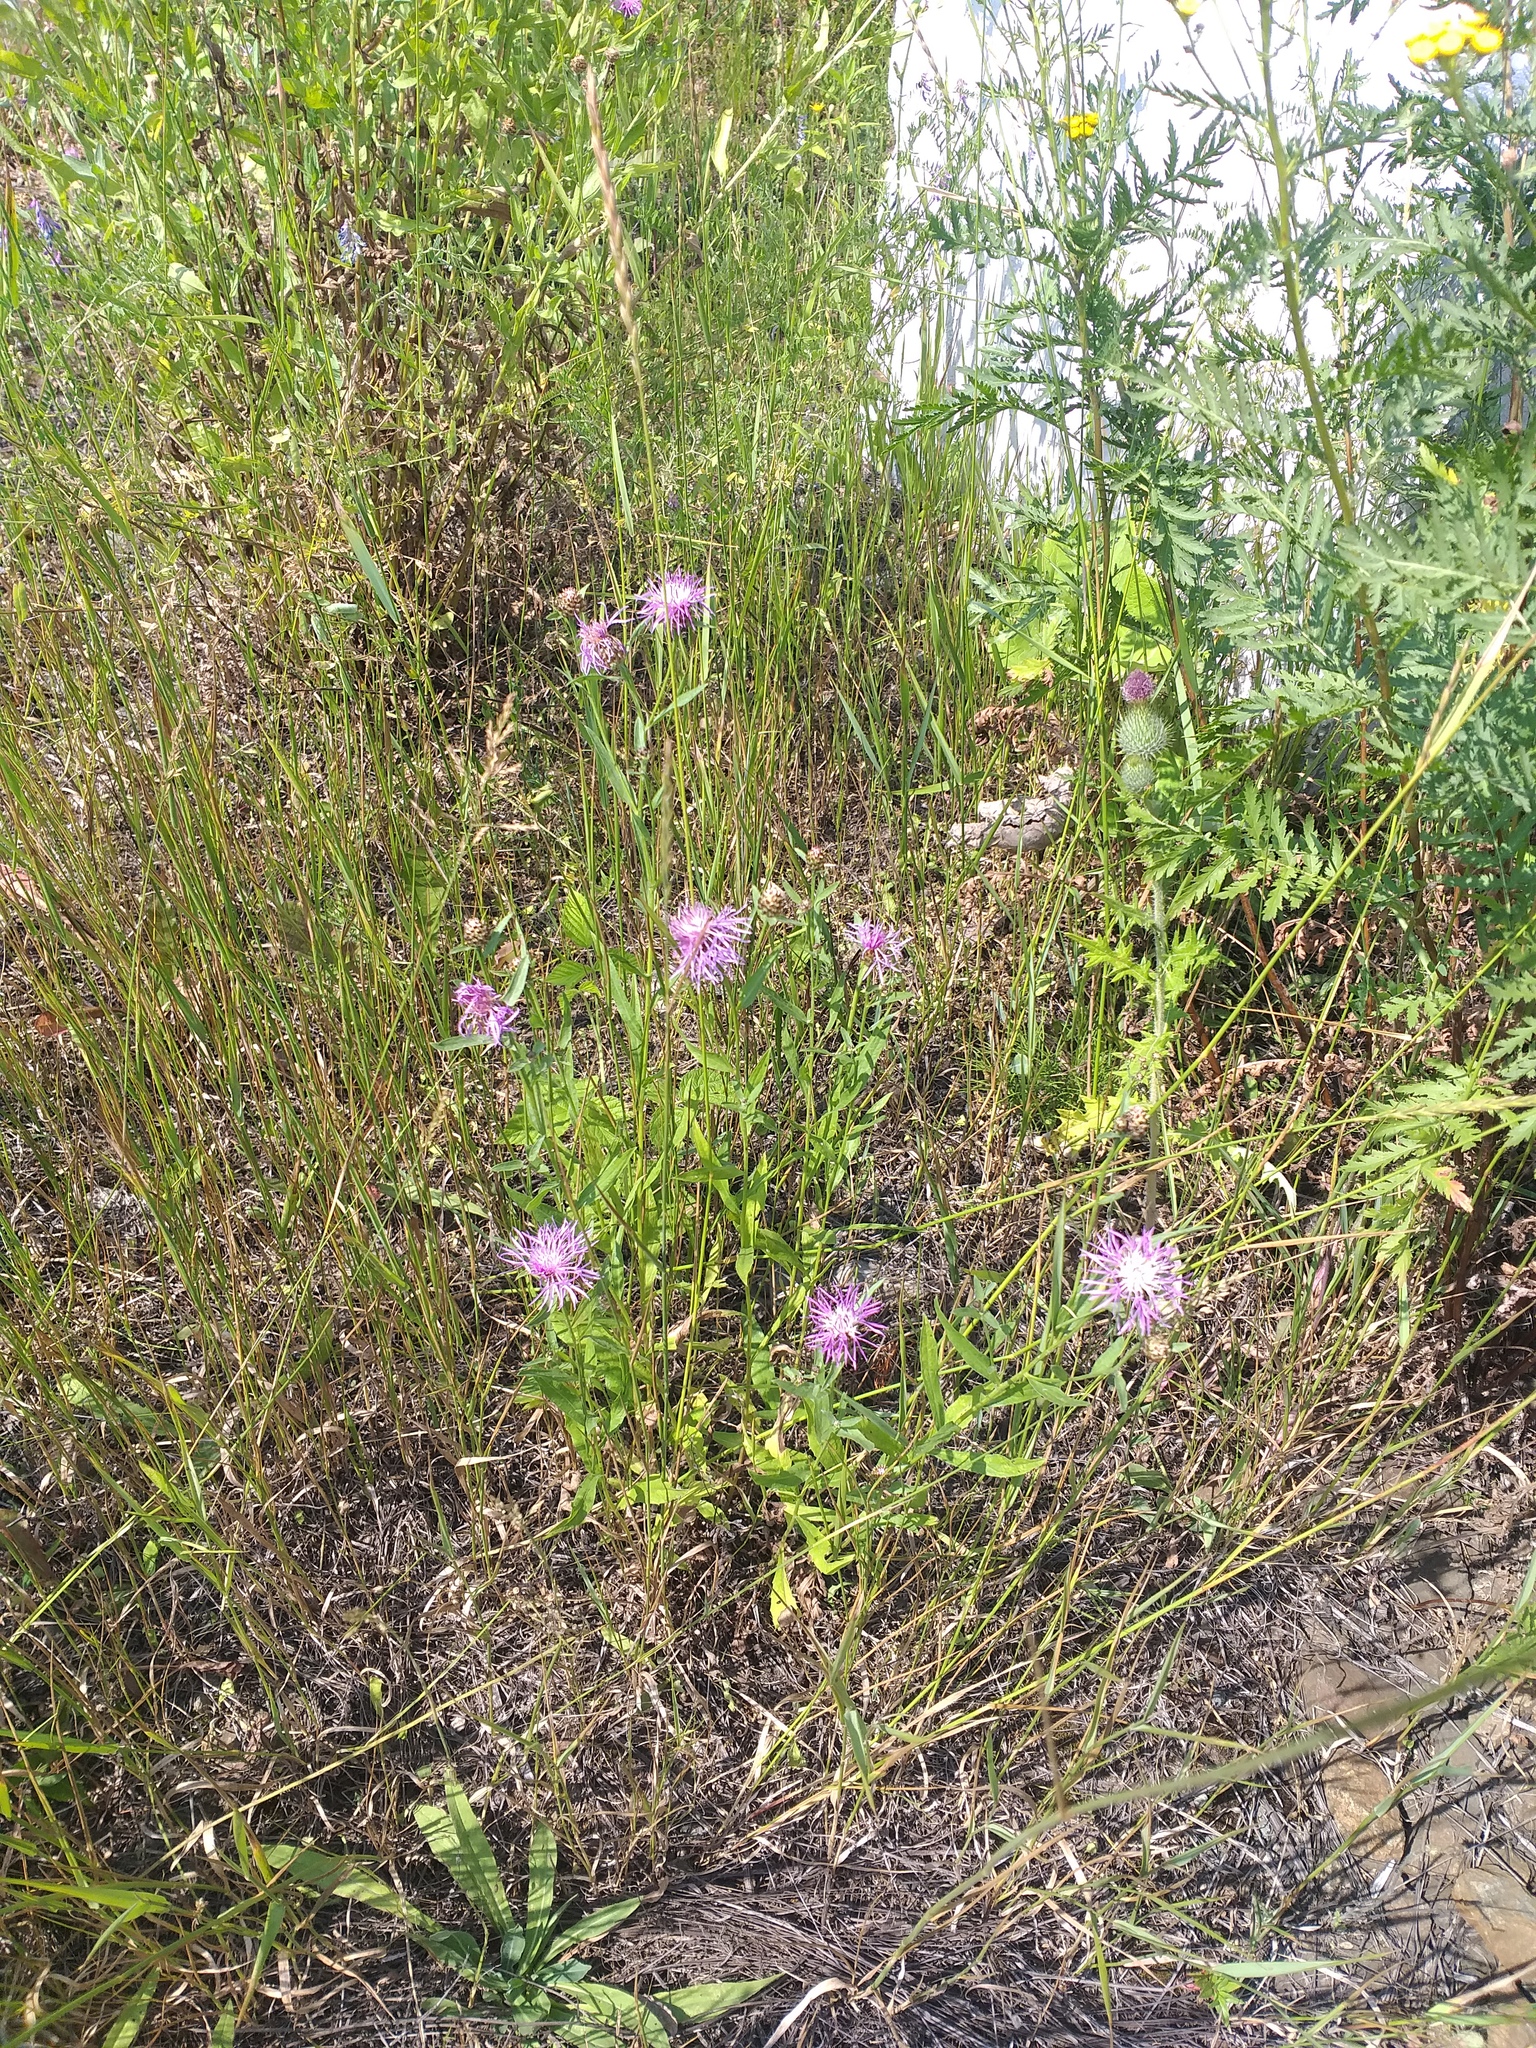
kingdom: Plantae
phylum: Tracheophyta
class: Magnoliopsida
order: Asterales
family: Asteraceae
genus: Centaurea
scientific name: Centaurea jacea
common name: Brown knapweed
